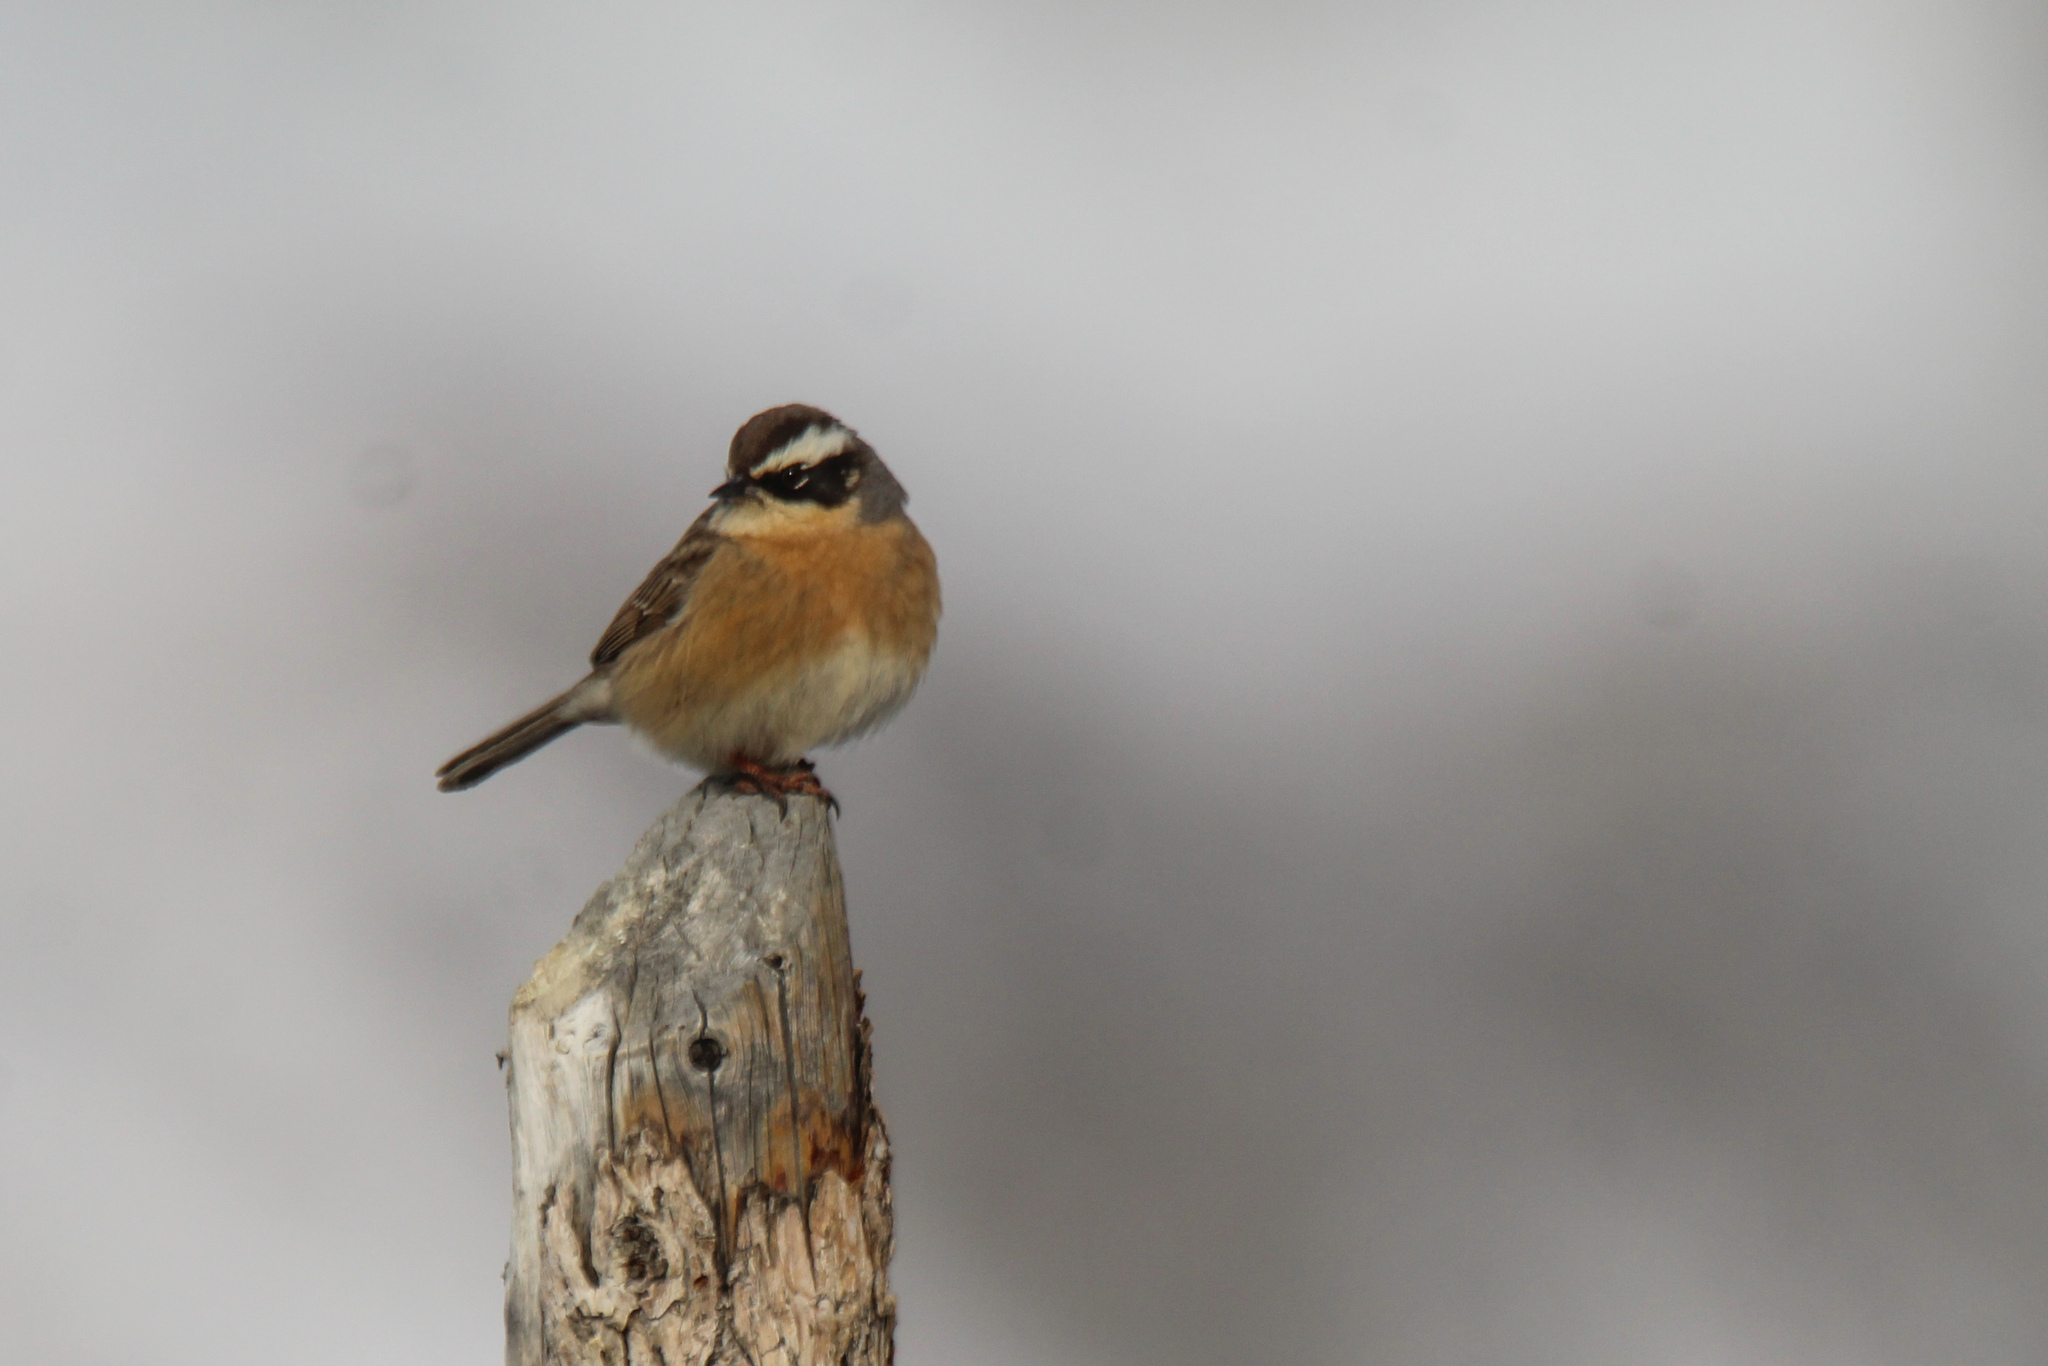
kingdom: Animalia
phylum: Chordata
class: Aves
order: Passeriformes
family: Prunellidae
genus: Prunella
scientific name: Prunella fulvescens
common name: Brown accentor
